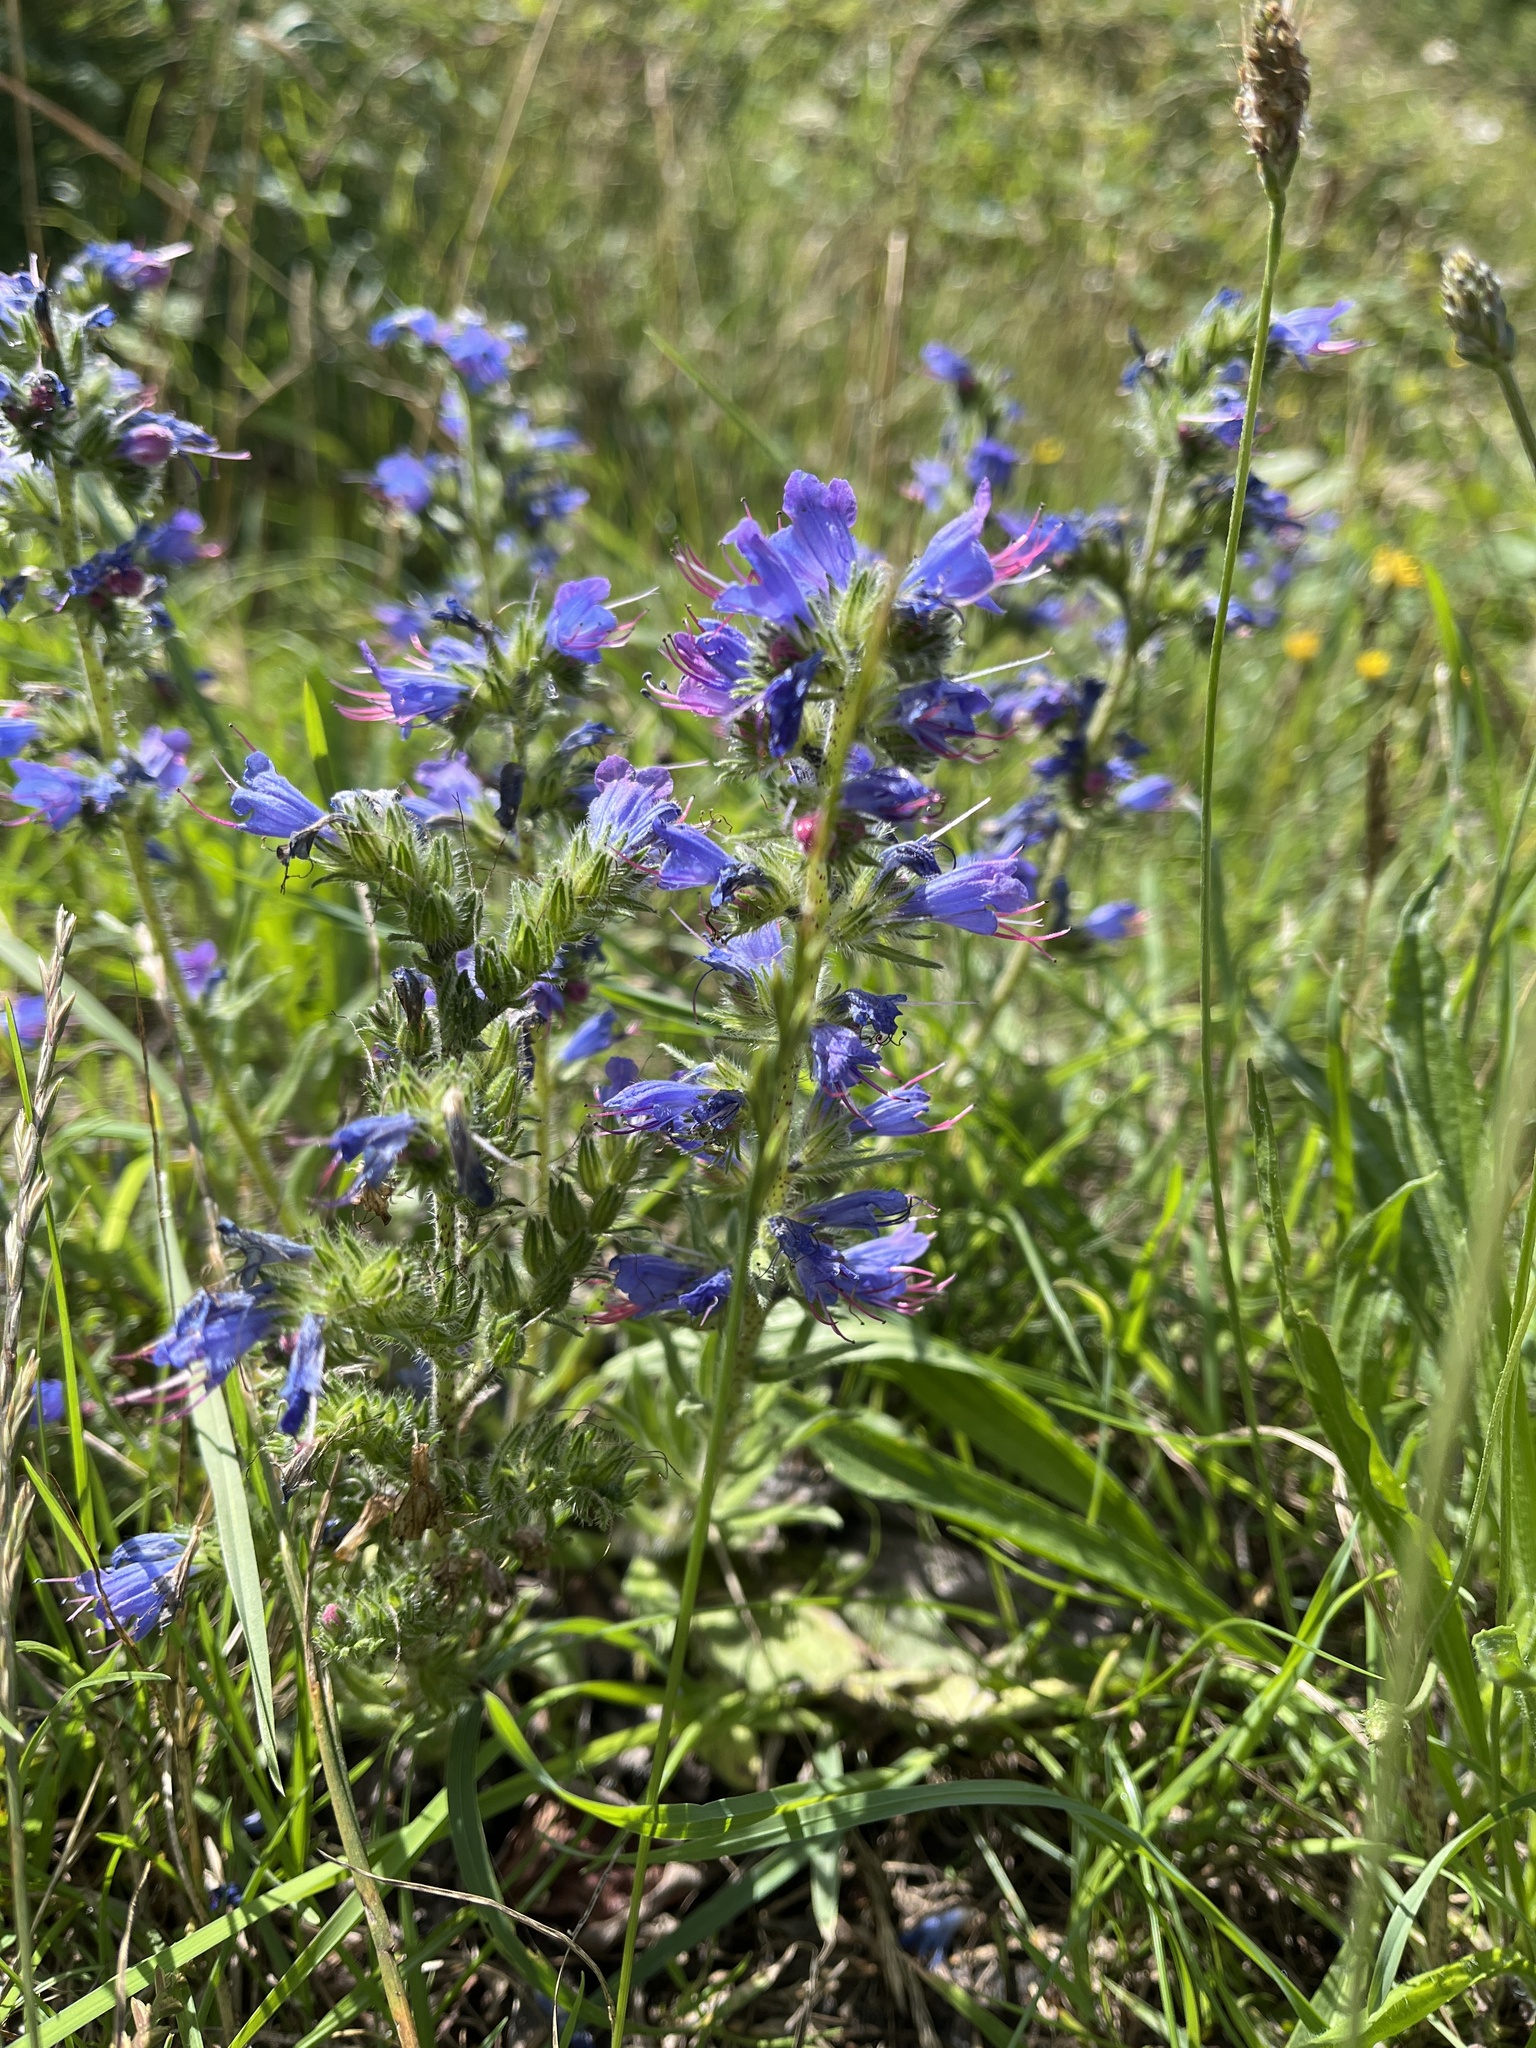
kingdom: Plantae
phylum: Tracheophyta
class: Magnoliopsida
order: Boraginales
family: Boraginaceae
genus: Echium
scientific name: Echium vulgare
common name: Common viper's bugloss
